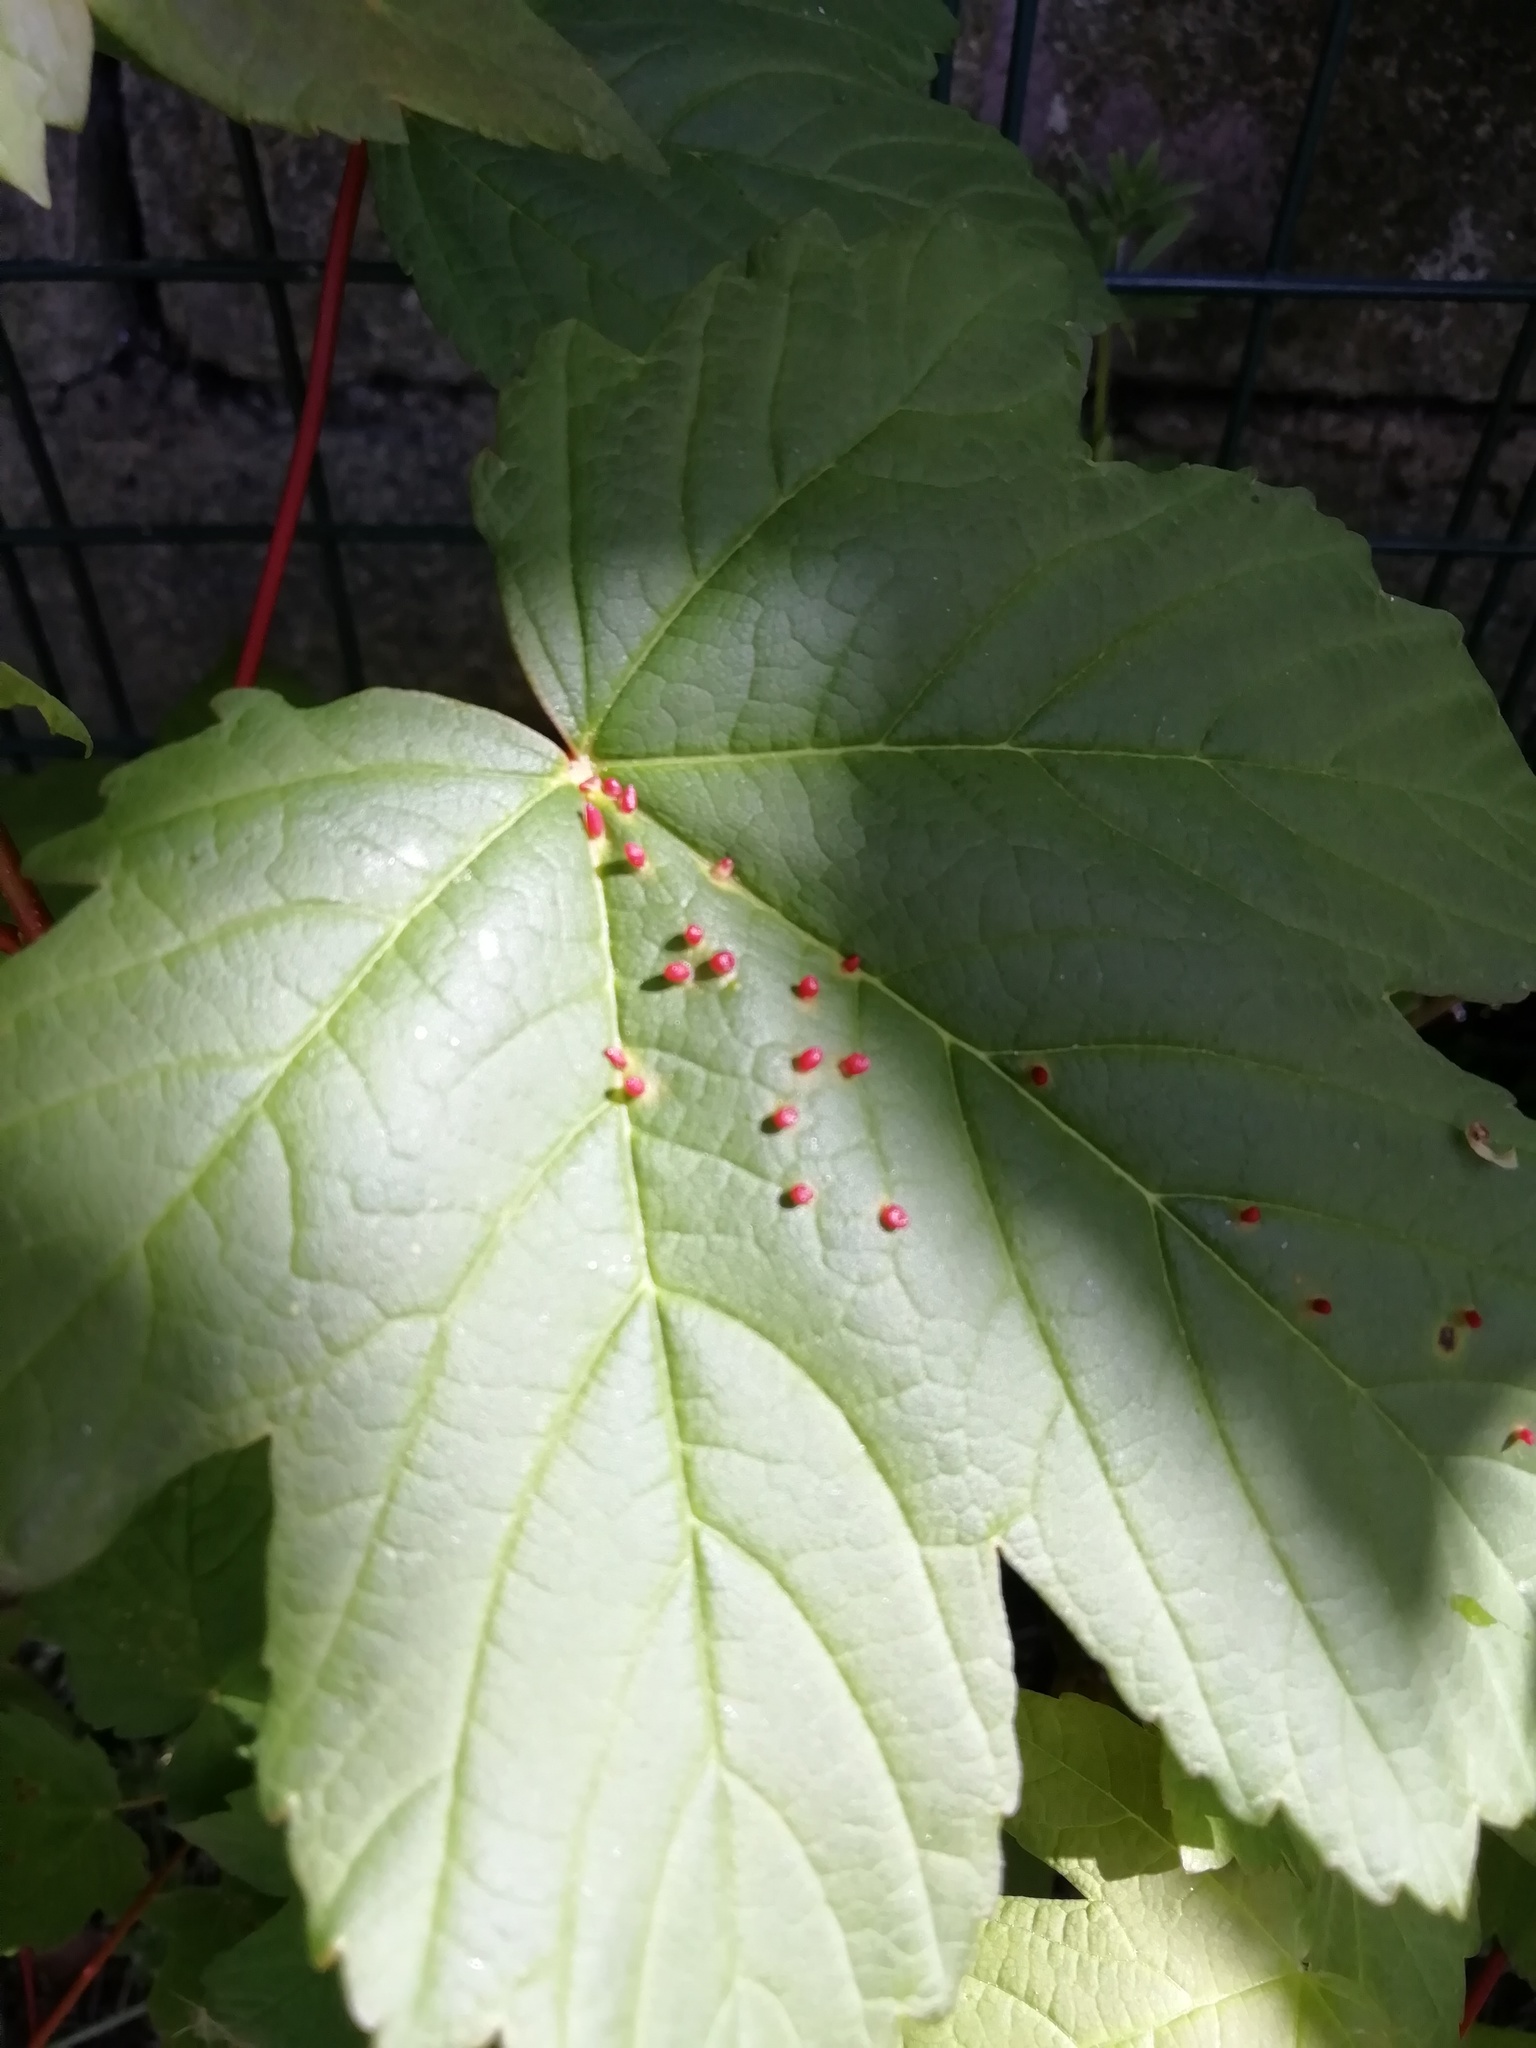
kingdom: Animalia
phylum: Arthropoda
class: Arachnida
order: Trombidiformes
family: Eriophyidae
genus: Aceria
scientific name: Aceria myriadeum
